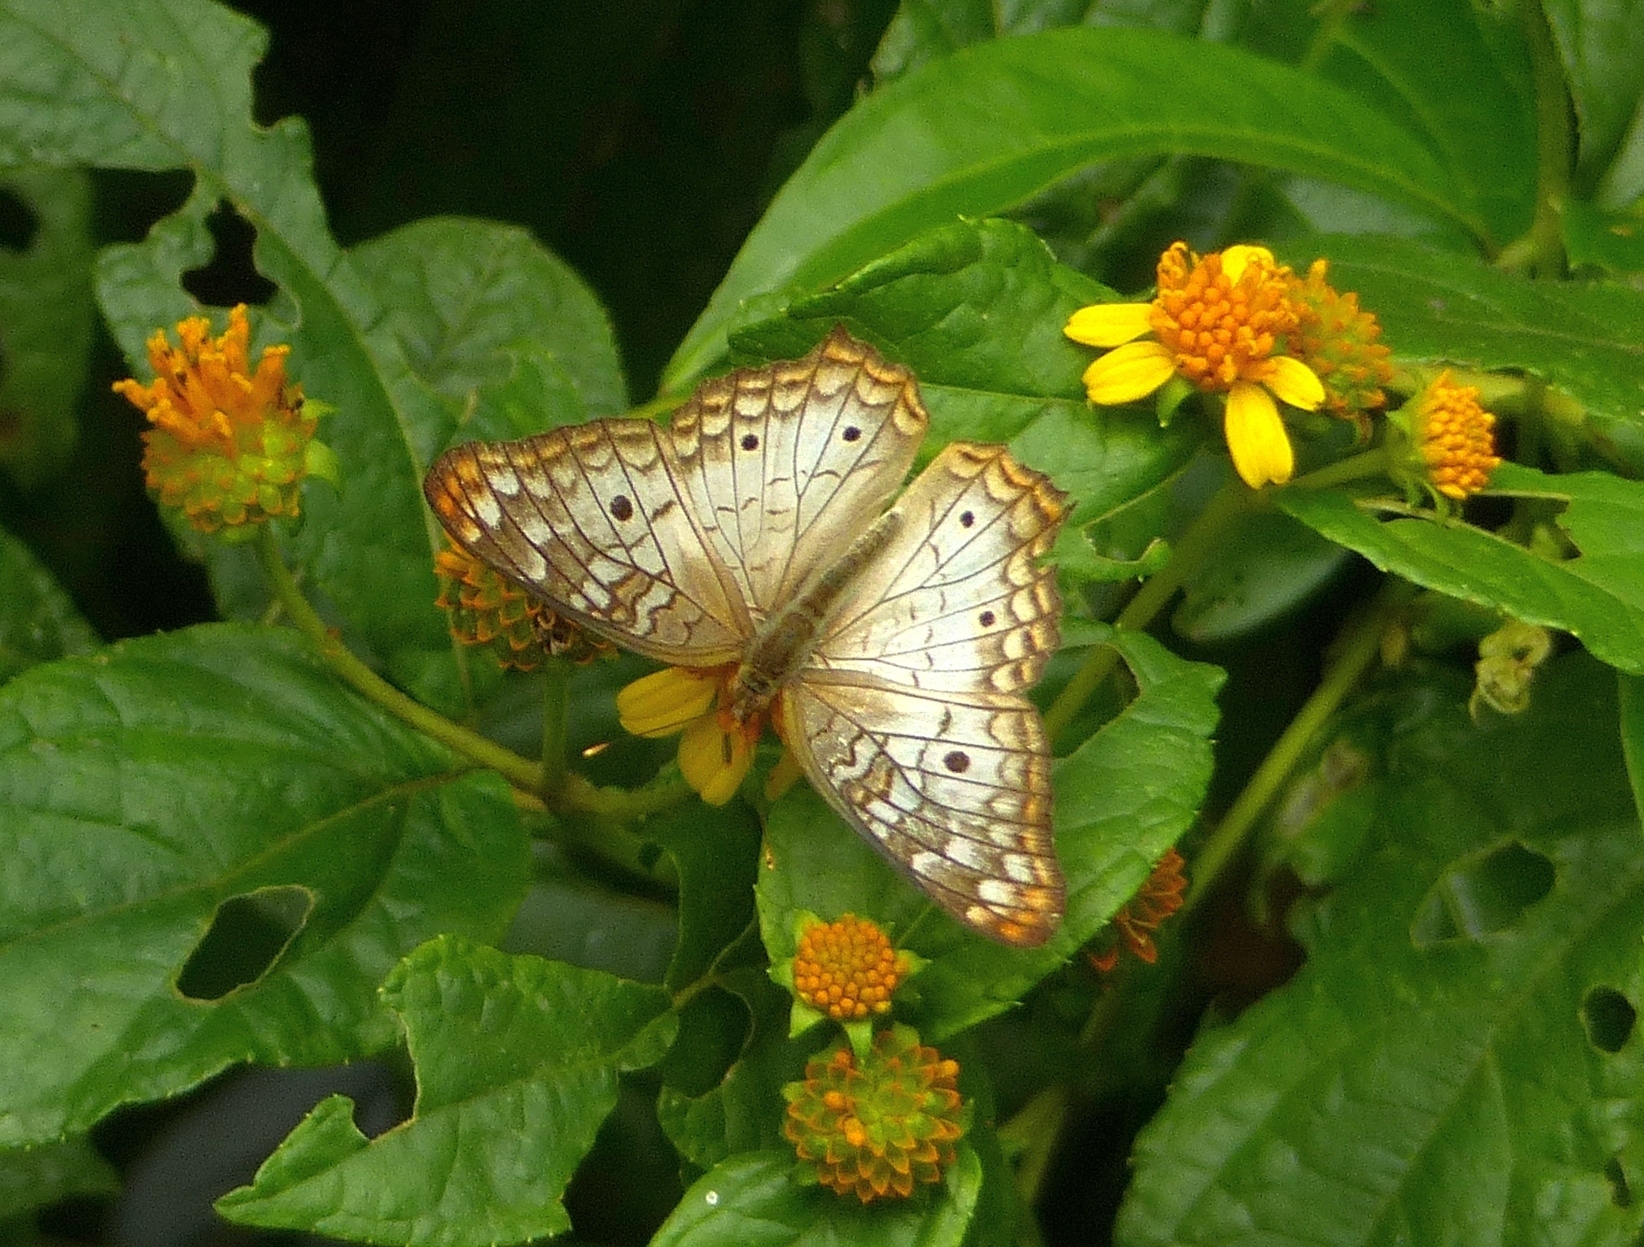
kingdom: Animalia
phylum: Arthropoda
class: Insecta
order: Lepidoptera
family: Nymphalidae
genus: Anartia
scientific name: Anartia jatrophae
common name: White peacock
